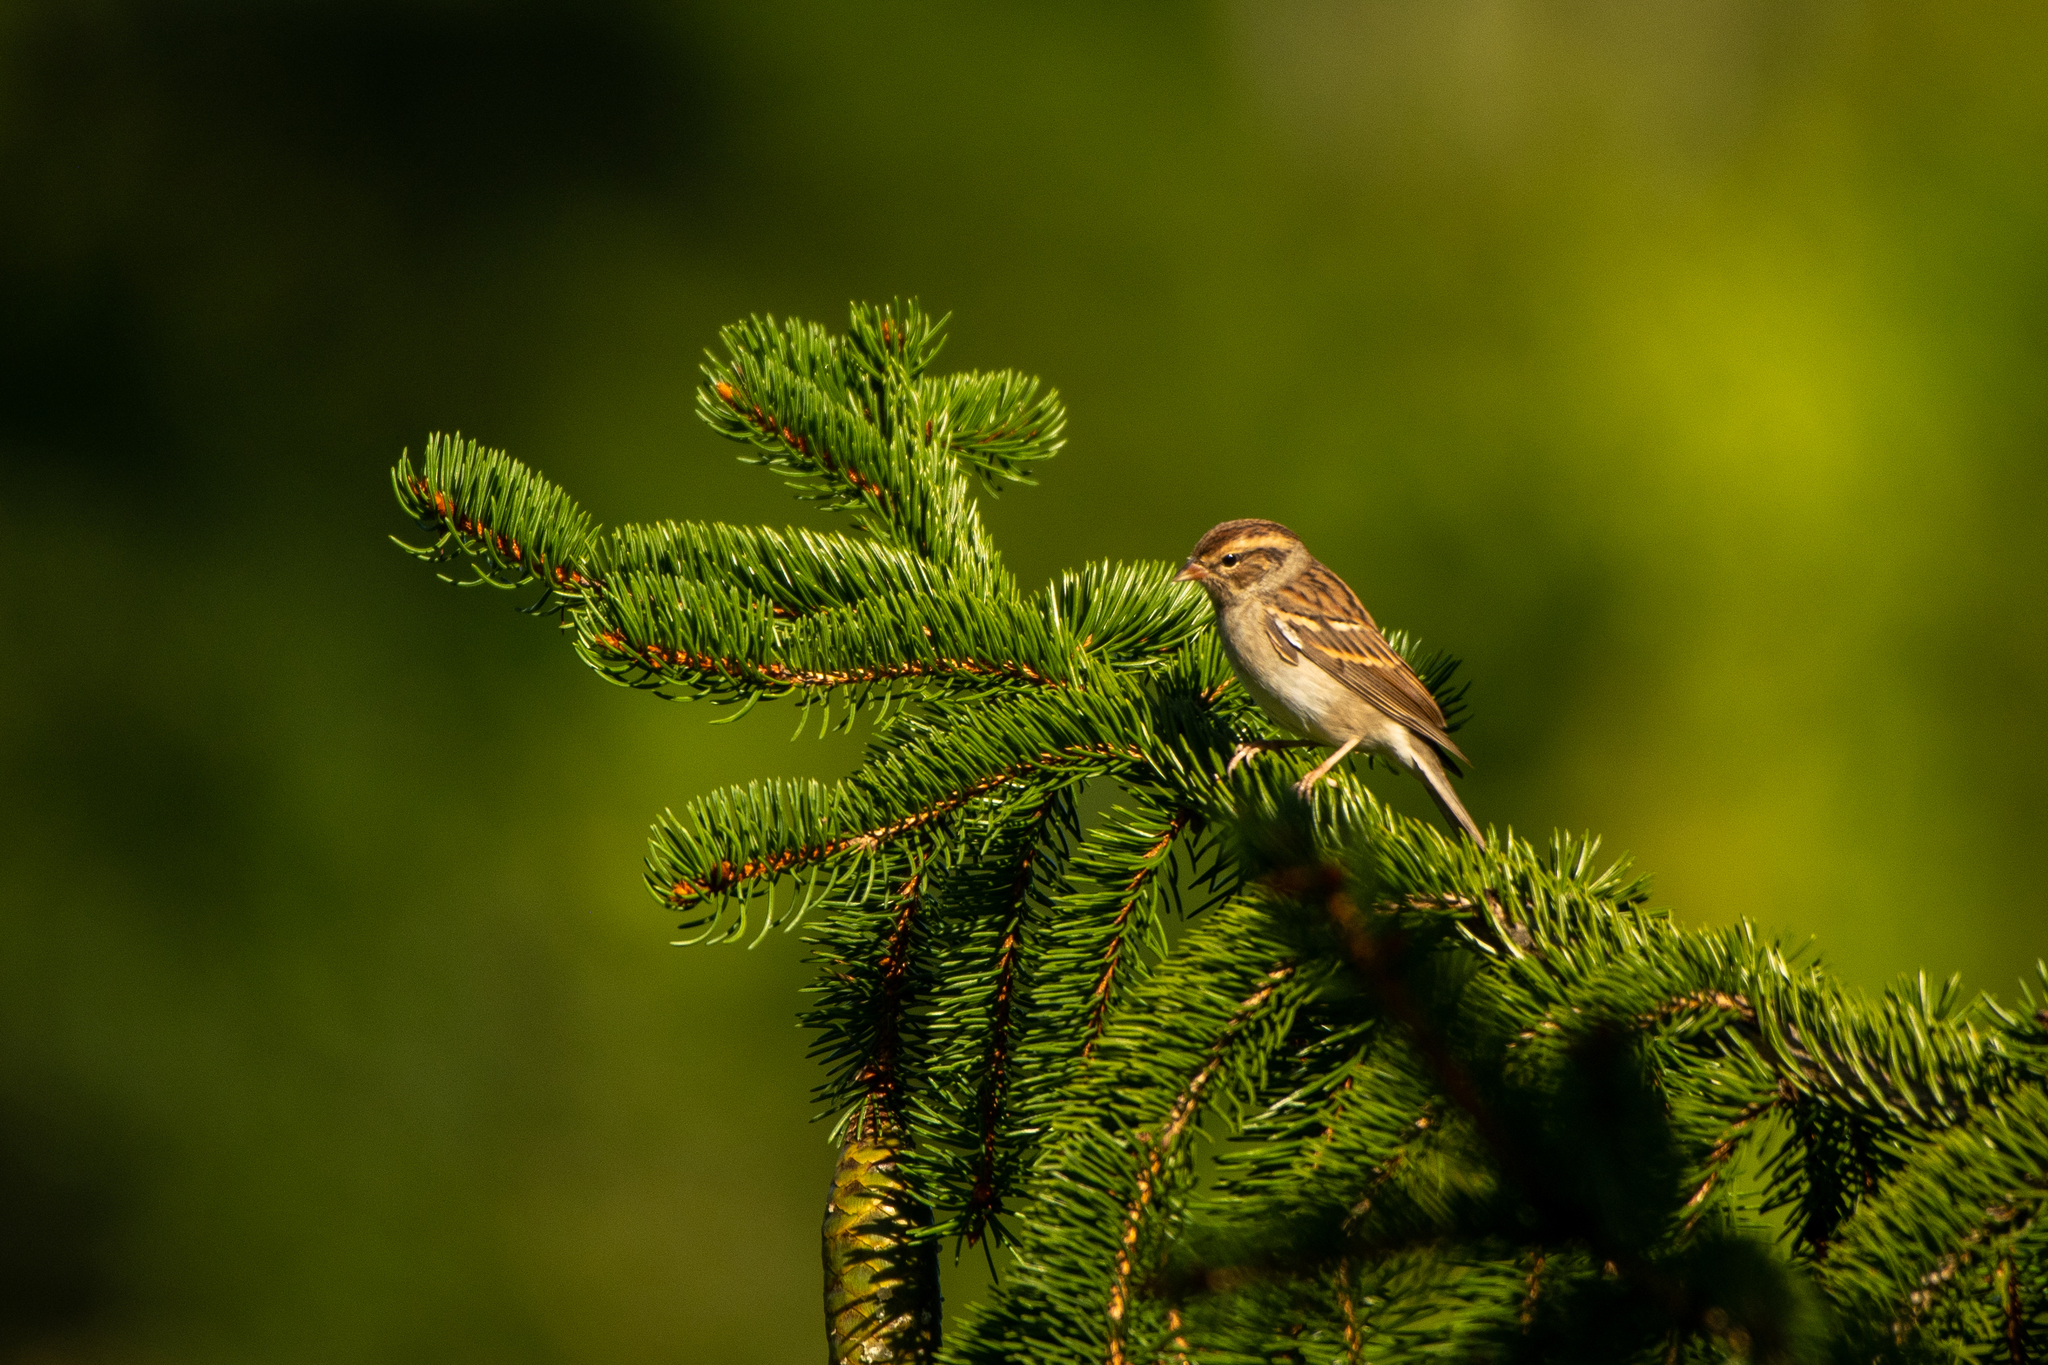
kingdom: Animalia
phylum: Chordata
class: Aves
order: Passeriformes
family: Passerellidae
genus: Spizella
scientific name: Spizella passerina
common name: Chipping sparrow
